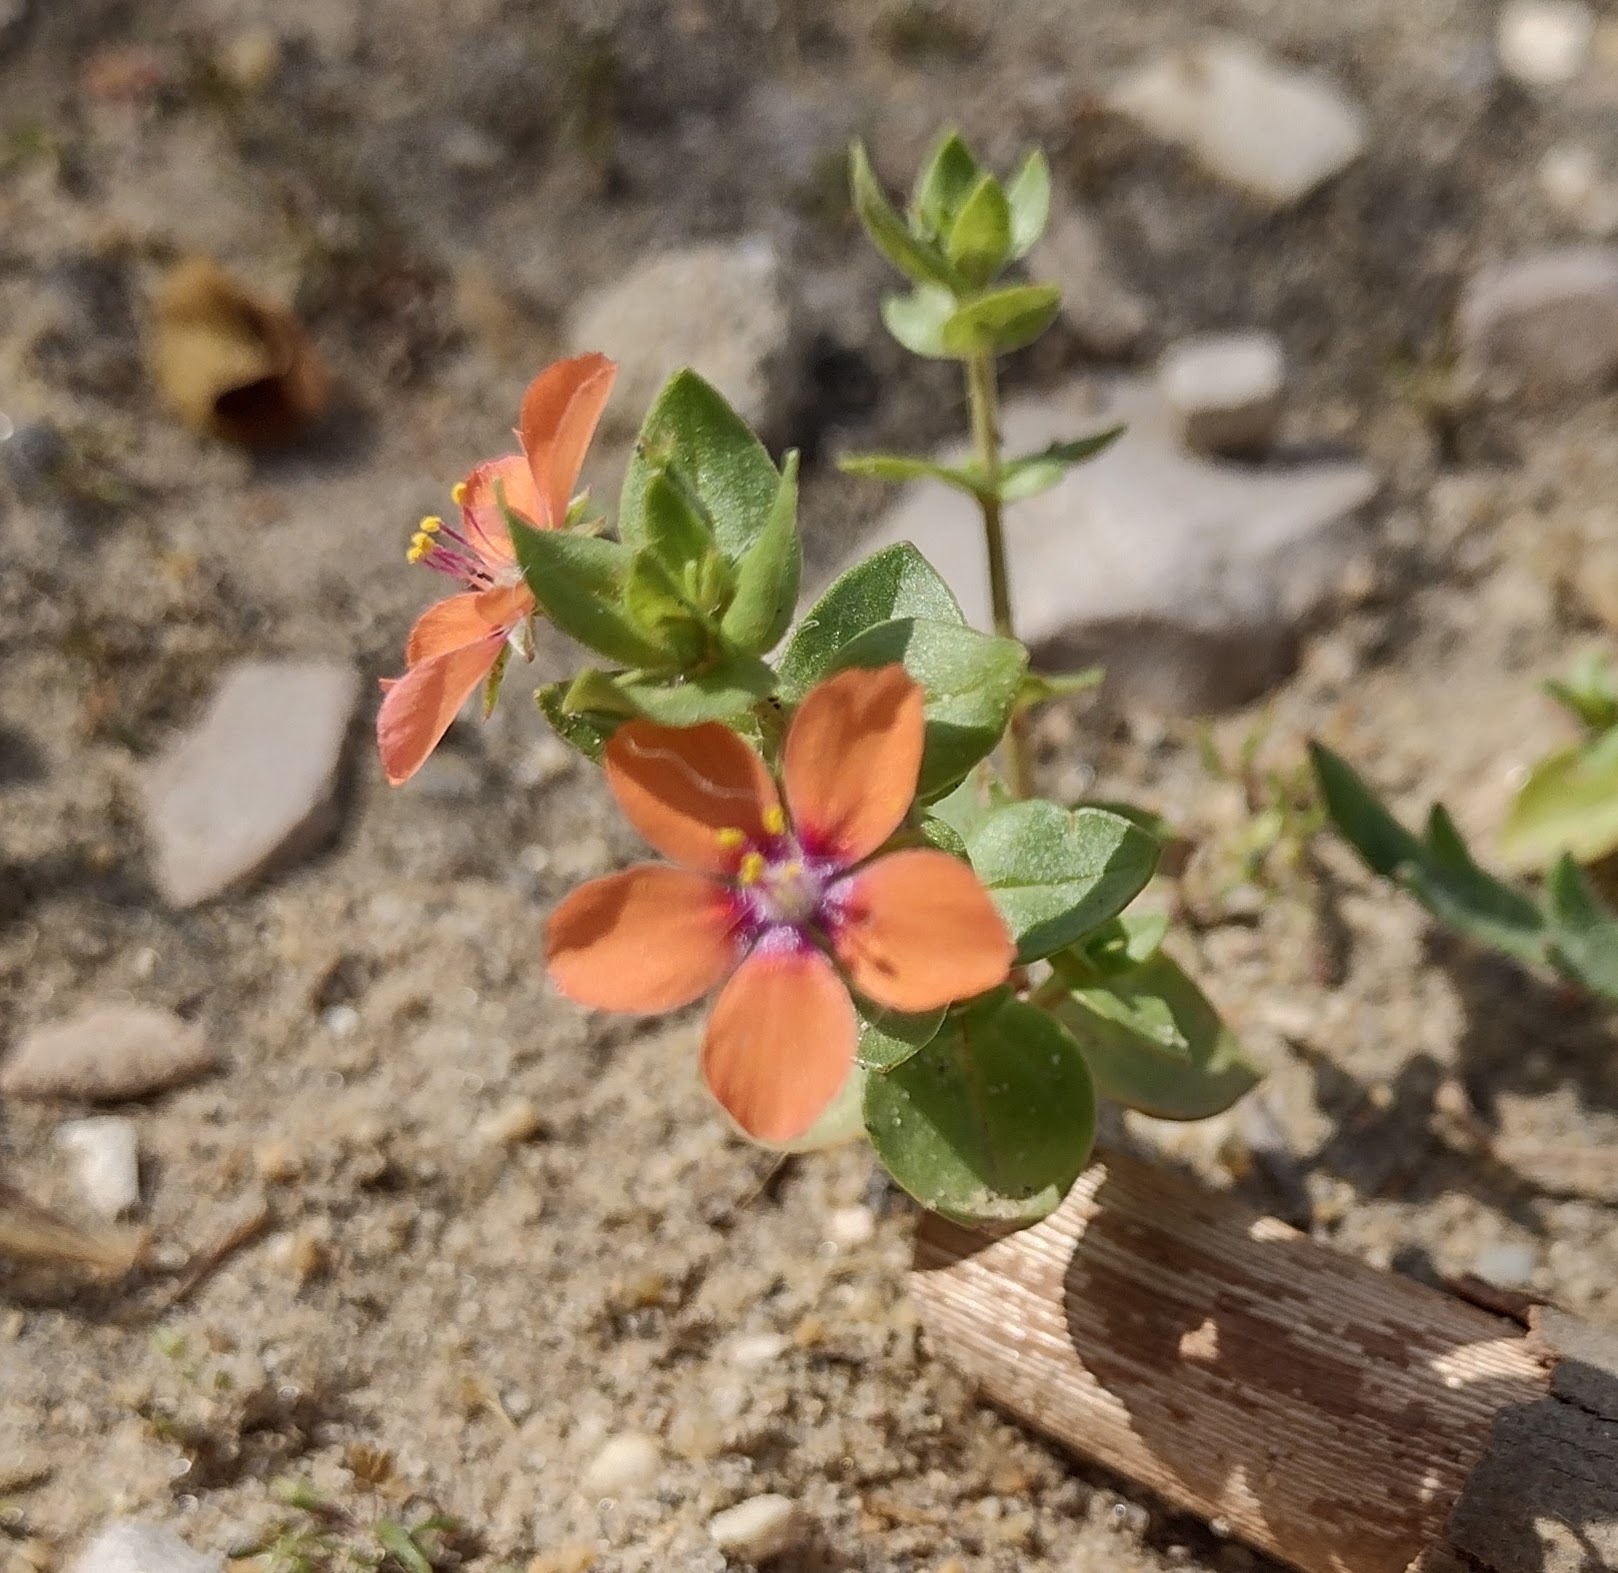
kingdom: Plantae
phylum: Tracheophyta
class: Magnoliopsida
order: Ericales
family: Primulaceae
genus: Lysimachia
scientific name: Lysimachia arvensis
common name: Scarlet pimpernel
